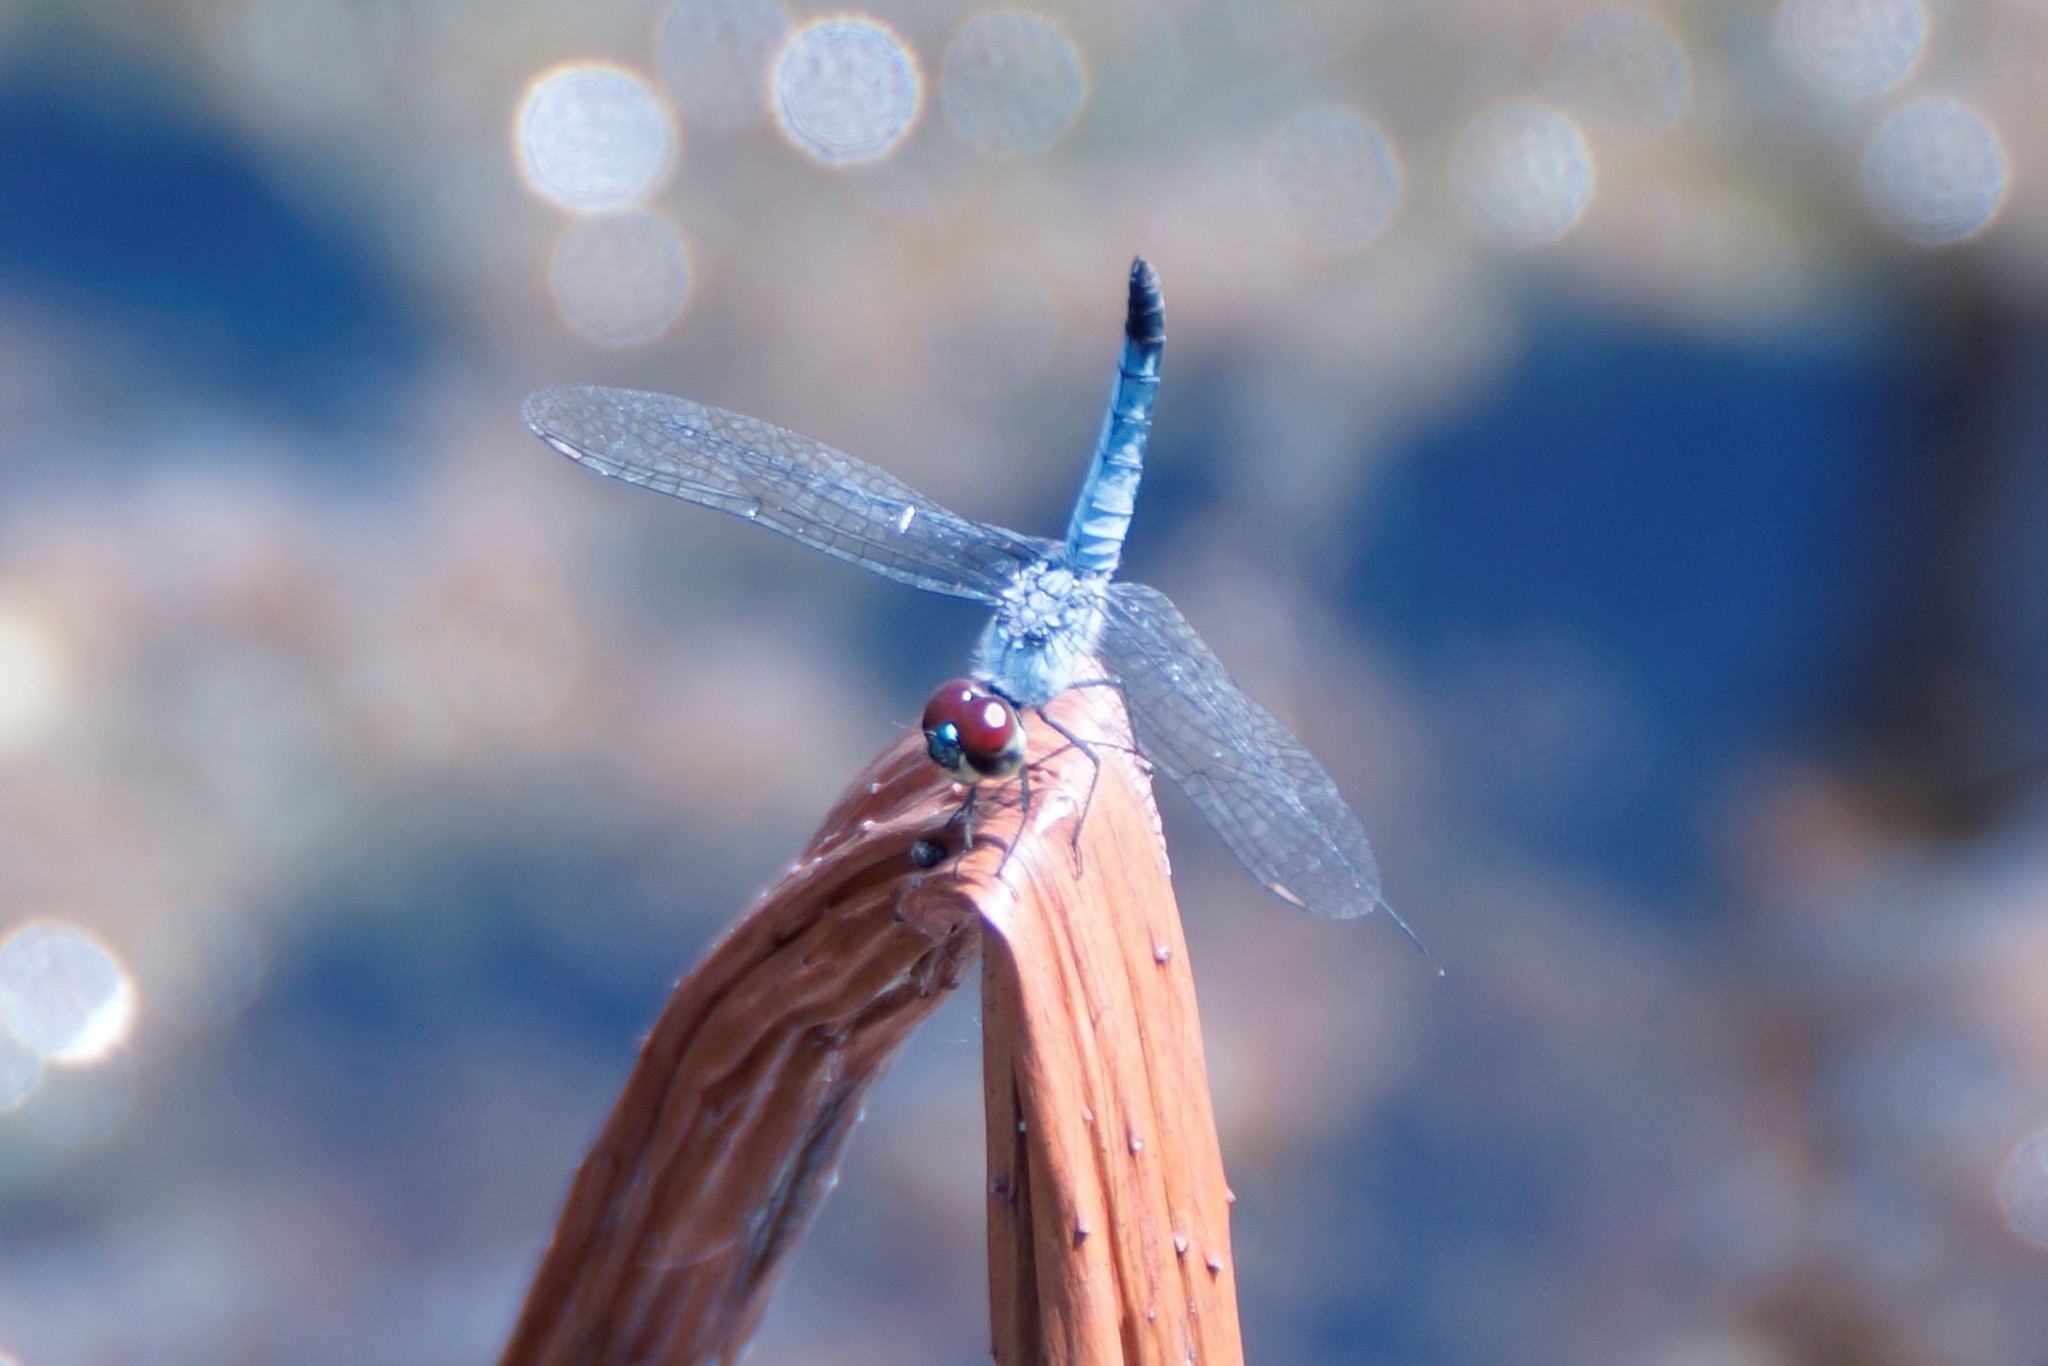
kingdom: Animalia
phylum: Arthropoda
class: Insecta
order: Odonata
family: Libellulidae
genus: Brachydiplax
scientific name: Brachydiplax denticauda
